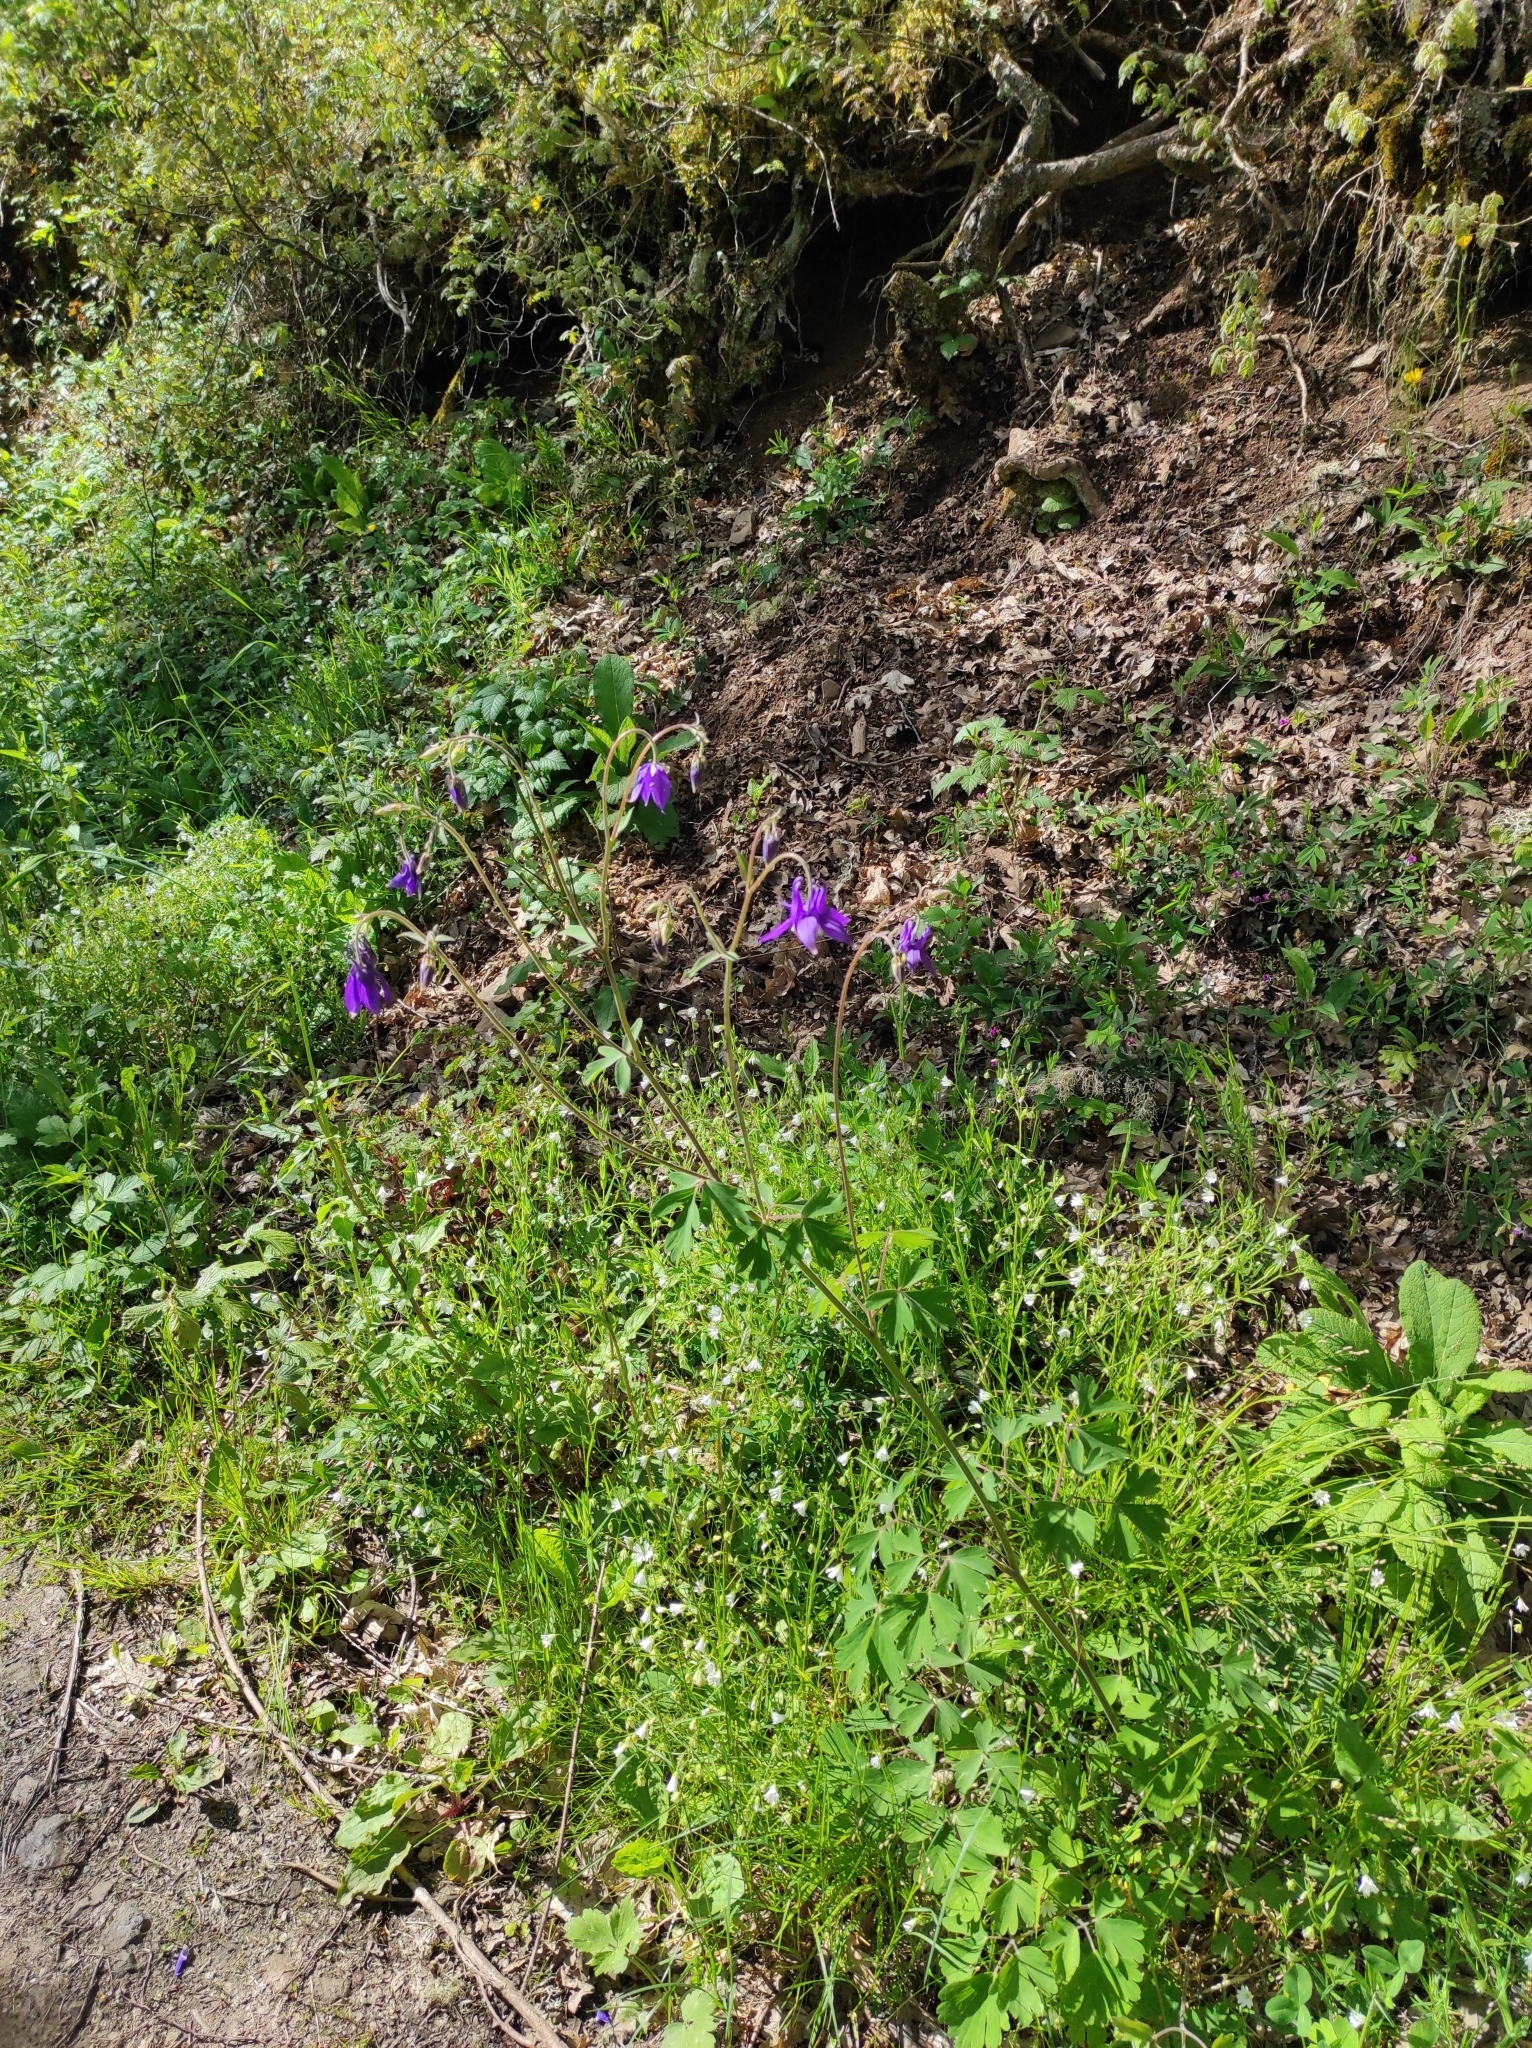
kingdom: Plantae
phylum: Tracheophyta
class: Magnoliopsida
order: Ranunculales
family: Ranunculaceae
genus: Aquilegia
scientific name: Aquilegia vulgaris
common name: Columbine
